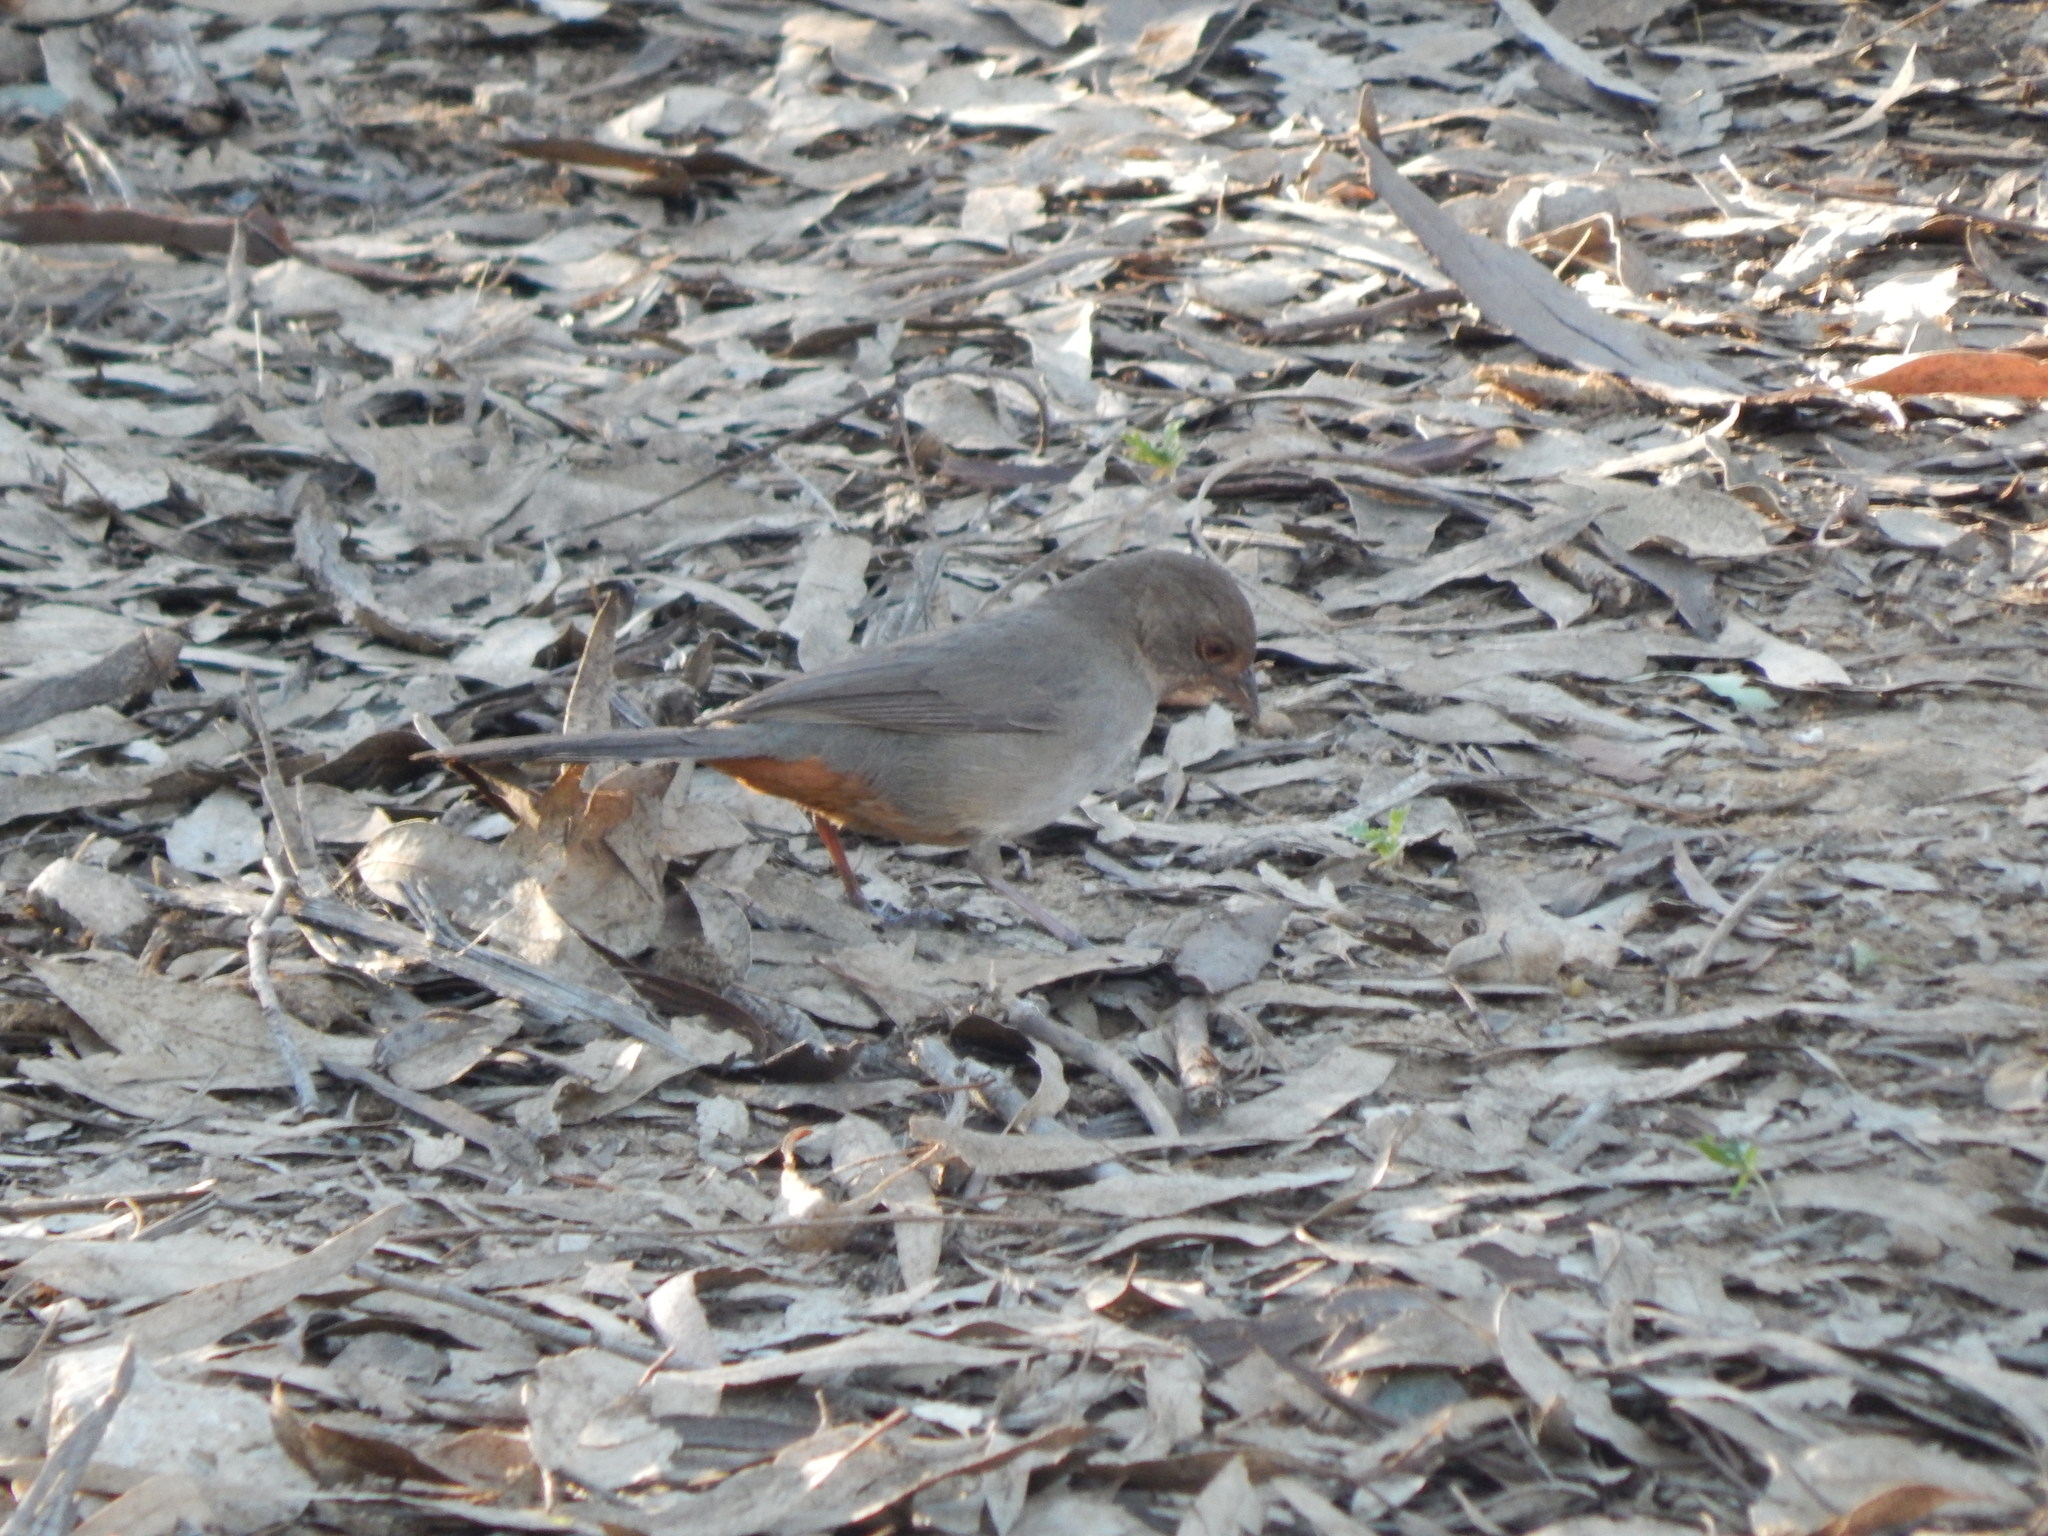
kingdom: Animalia
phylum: Chordata
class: Aves
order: Passeriformes
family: Passerellidae
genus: Melozone
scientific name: Melozone crissalis
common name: California towhee
